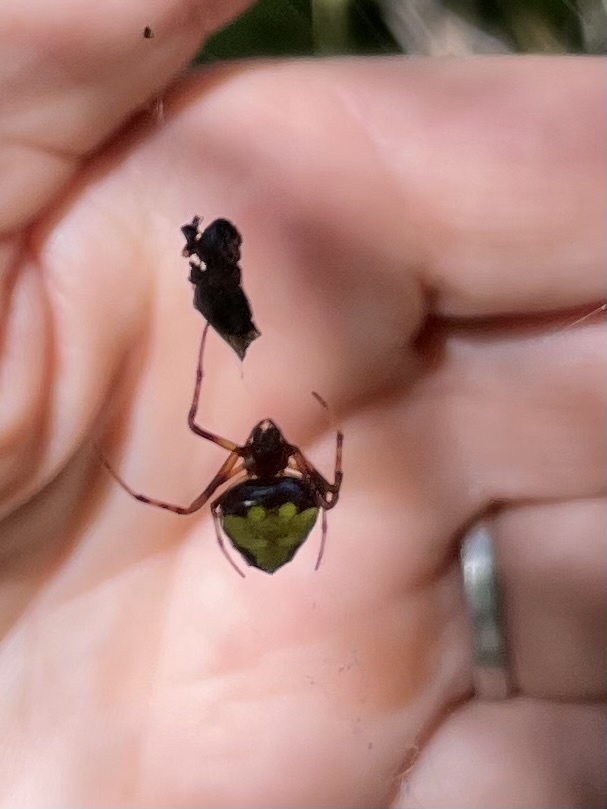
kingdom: Animalia
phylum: Arthropoda
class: Arachnida
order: Araneae
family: Araneidae
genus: Verrucosa
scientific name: Verrucosa arenata
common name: Orb weavers
